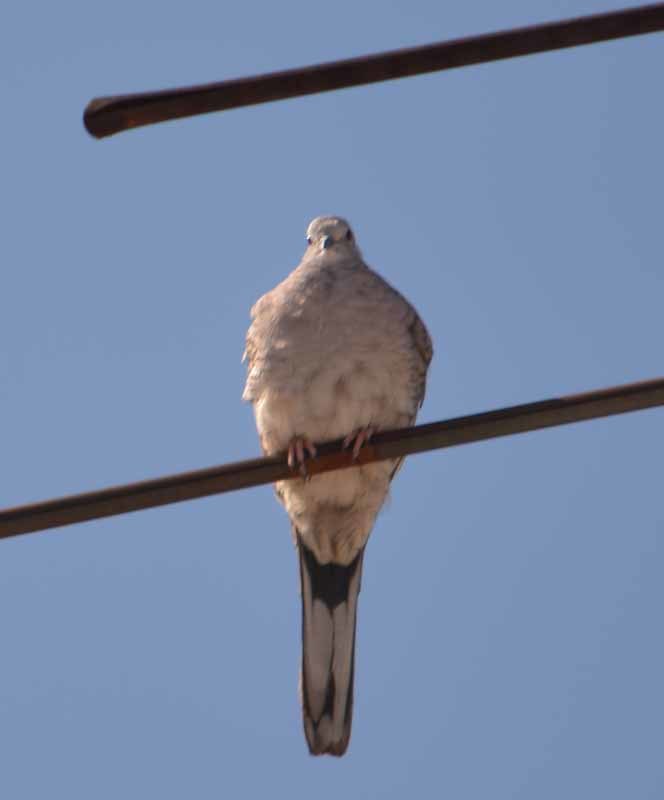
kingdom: Animalia
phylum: Chordata
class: Aves
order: Columbiformes
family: Columbidae
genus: Columbina
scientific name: Columbina inca
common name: Inca dove
